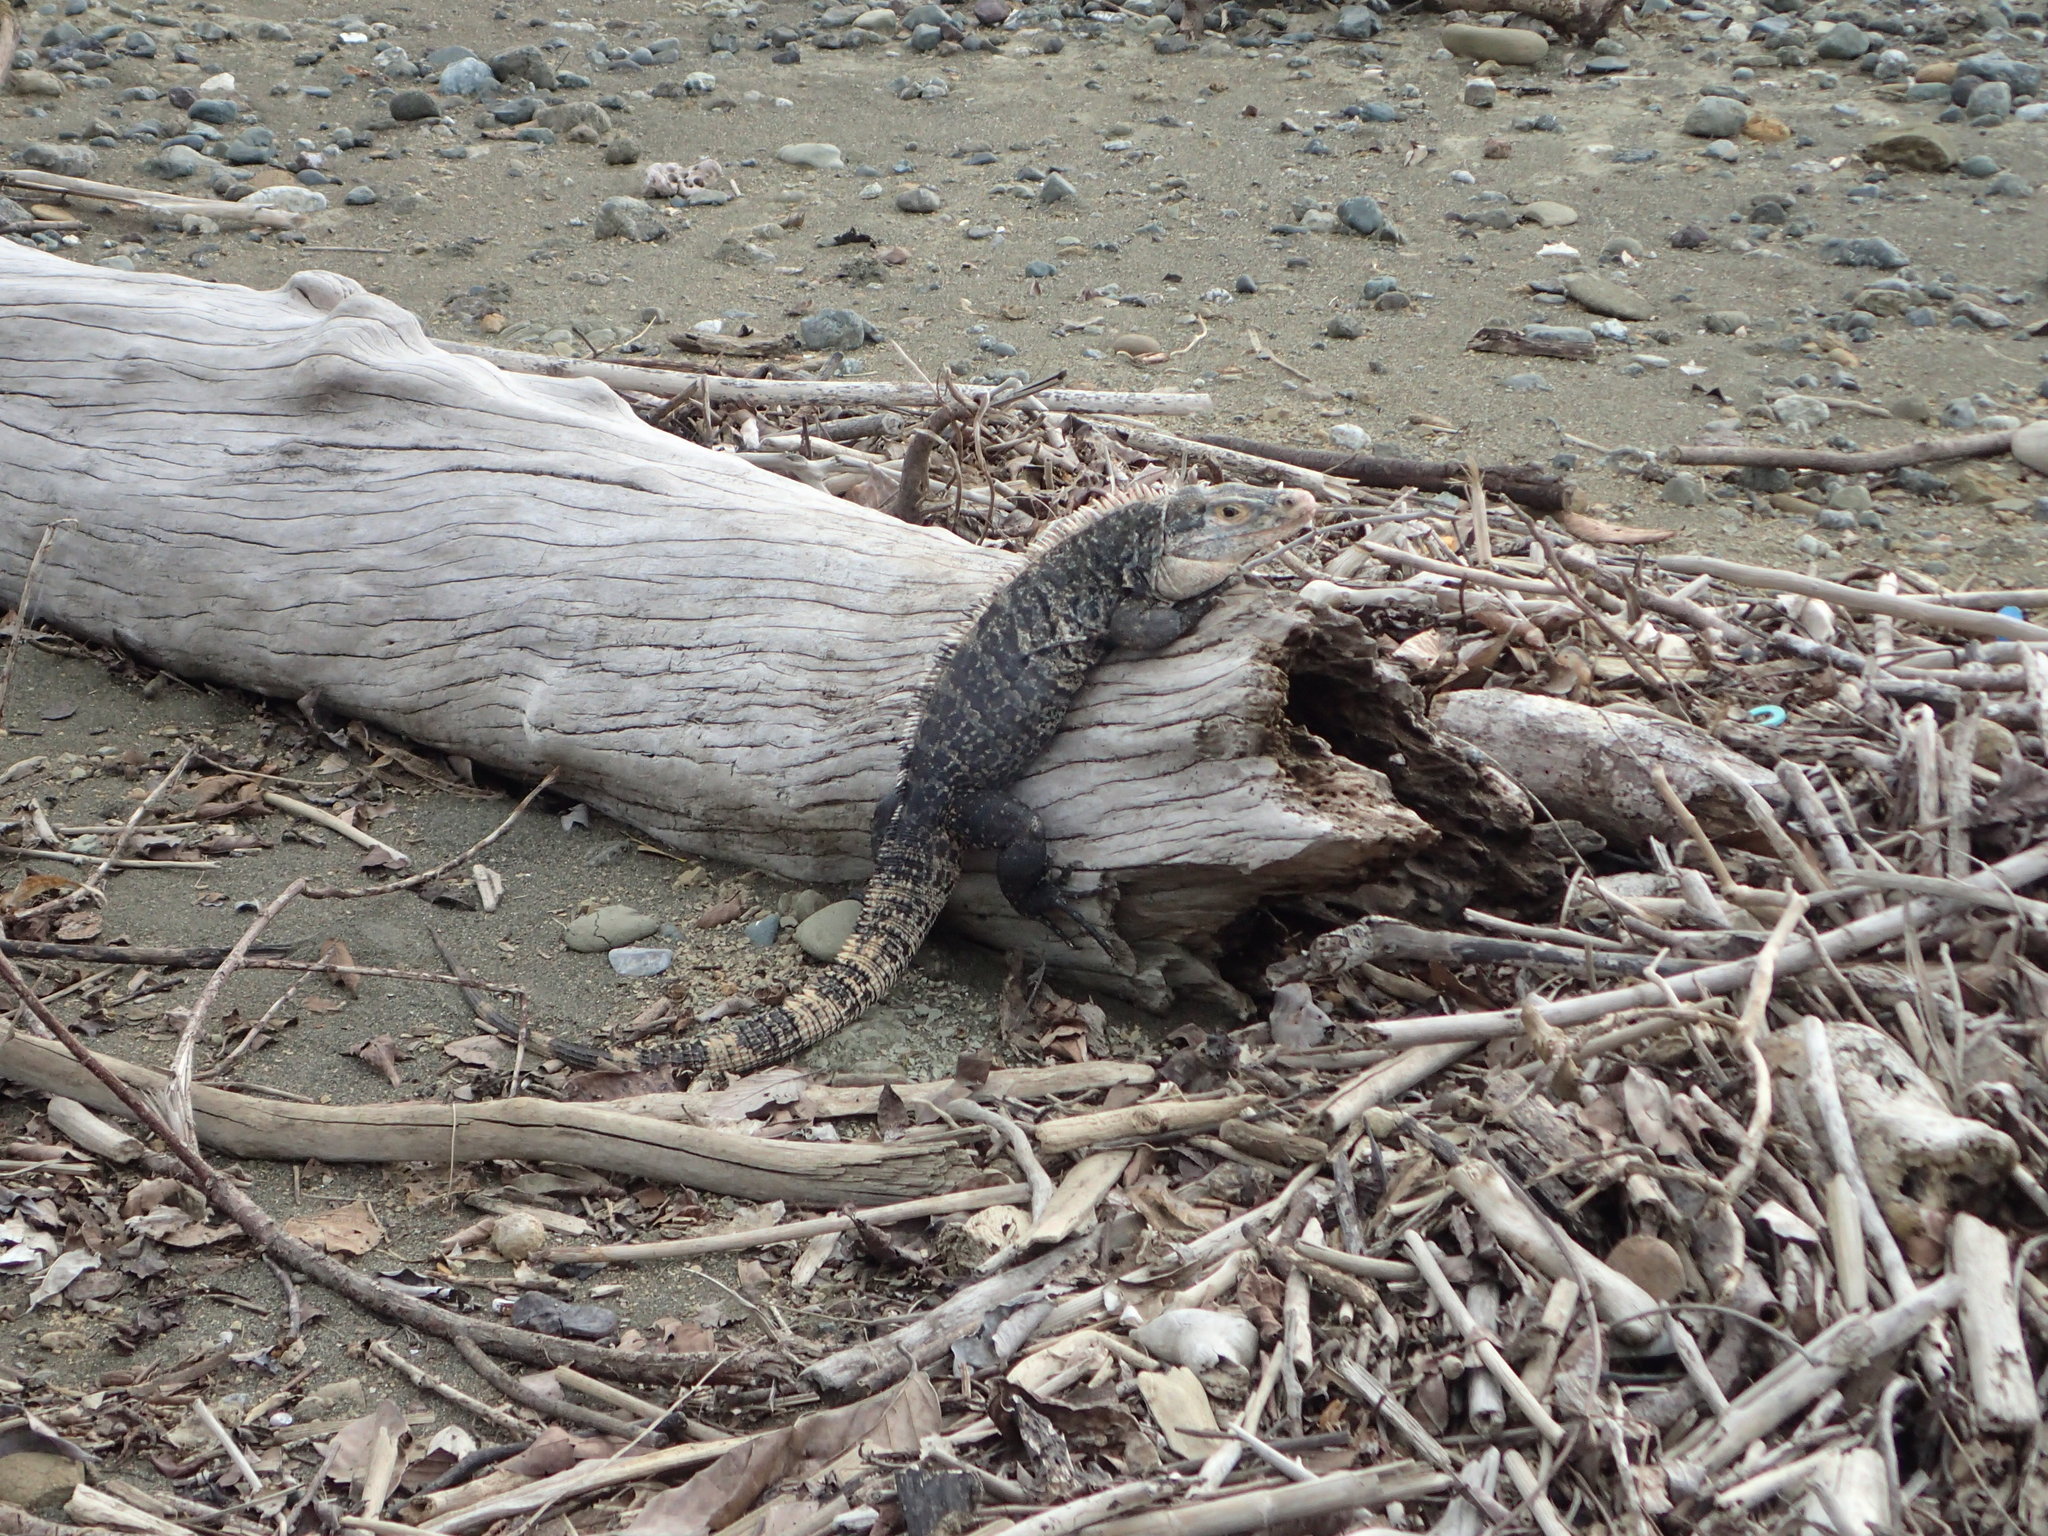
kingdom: Animalia
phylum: Chordata
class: Squamata
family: Iguanidae
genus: Ctenosaura
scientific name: Ctenosaura similis
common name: Black spiny-tailed iguana
